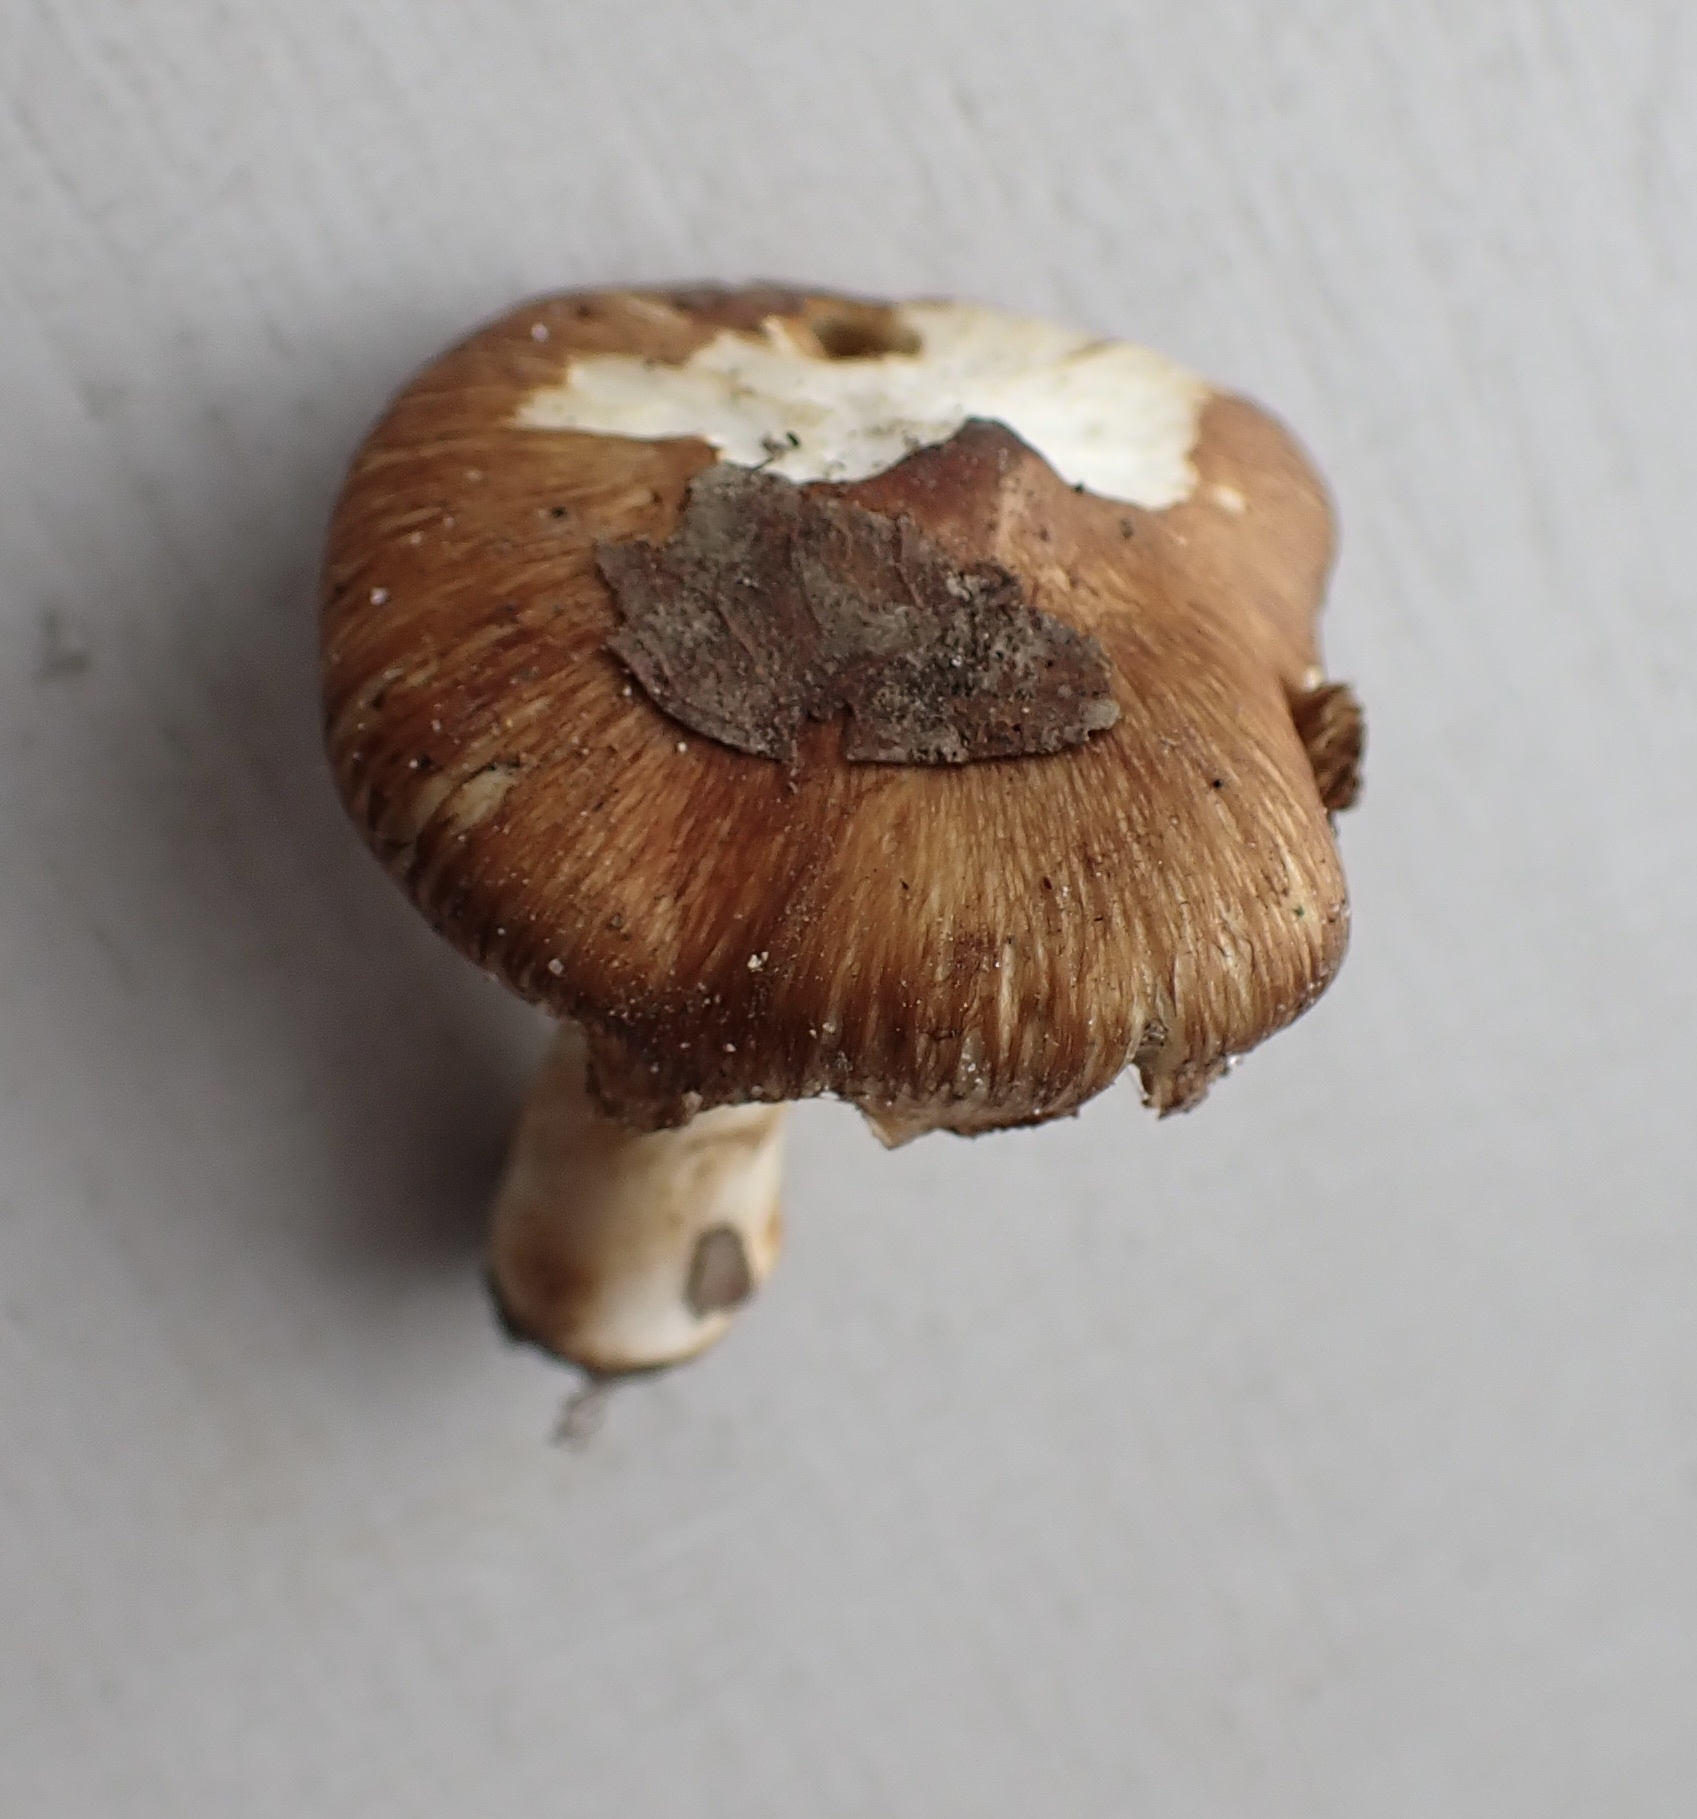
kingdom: Fungi
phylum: Basidiomycota
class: Agaricomycetes
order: Agaricales
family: Inocybaceae
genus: Inosperma
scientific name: Inosperma lanatodiscum
